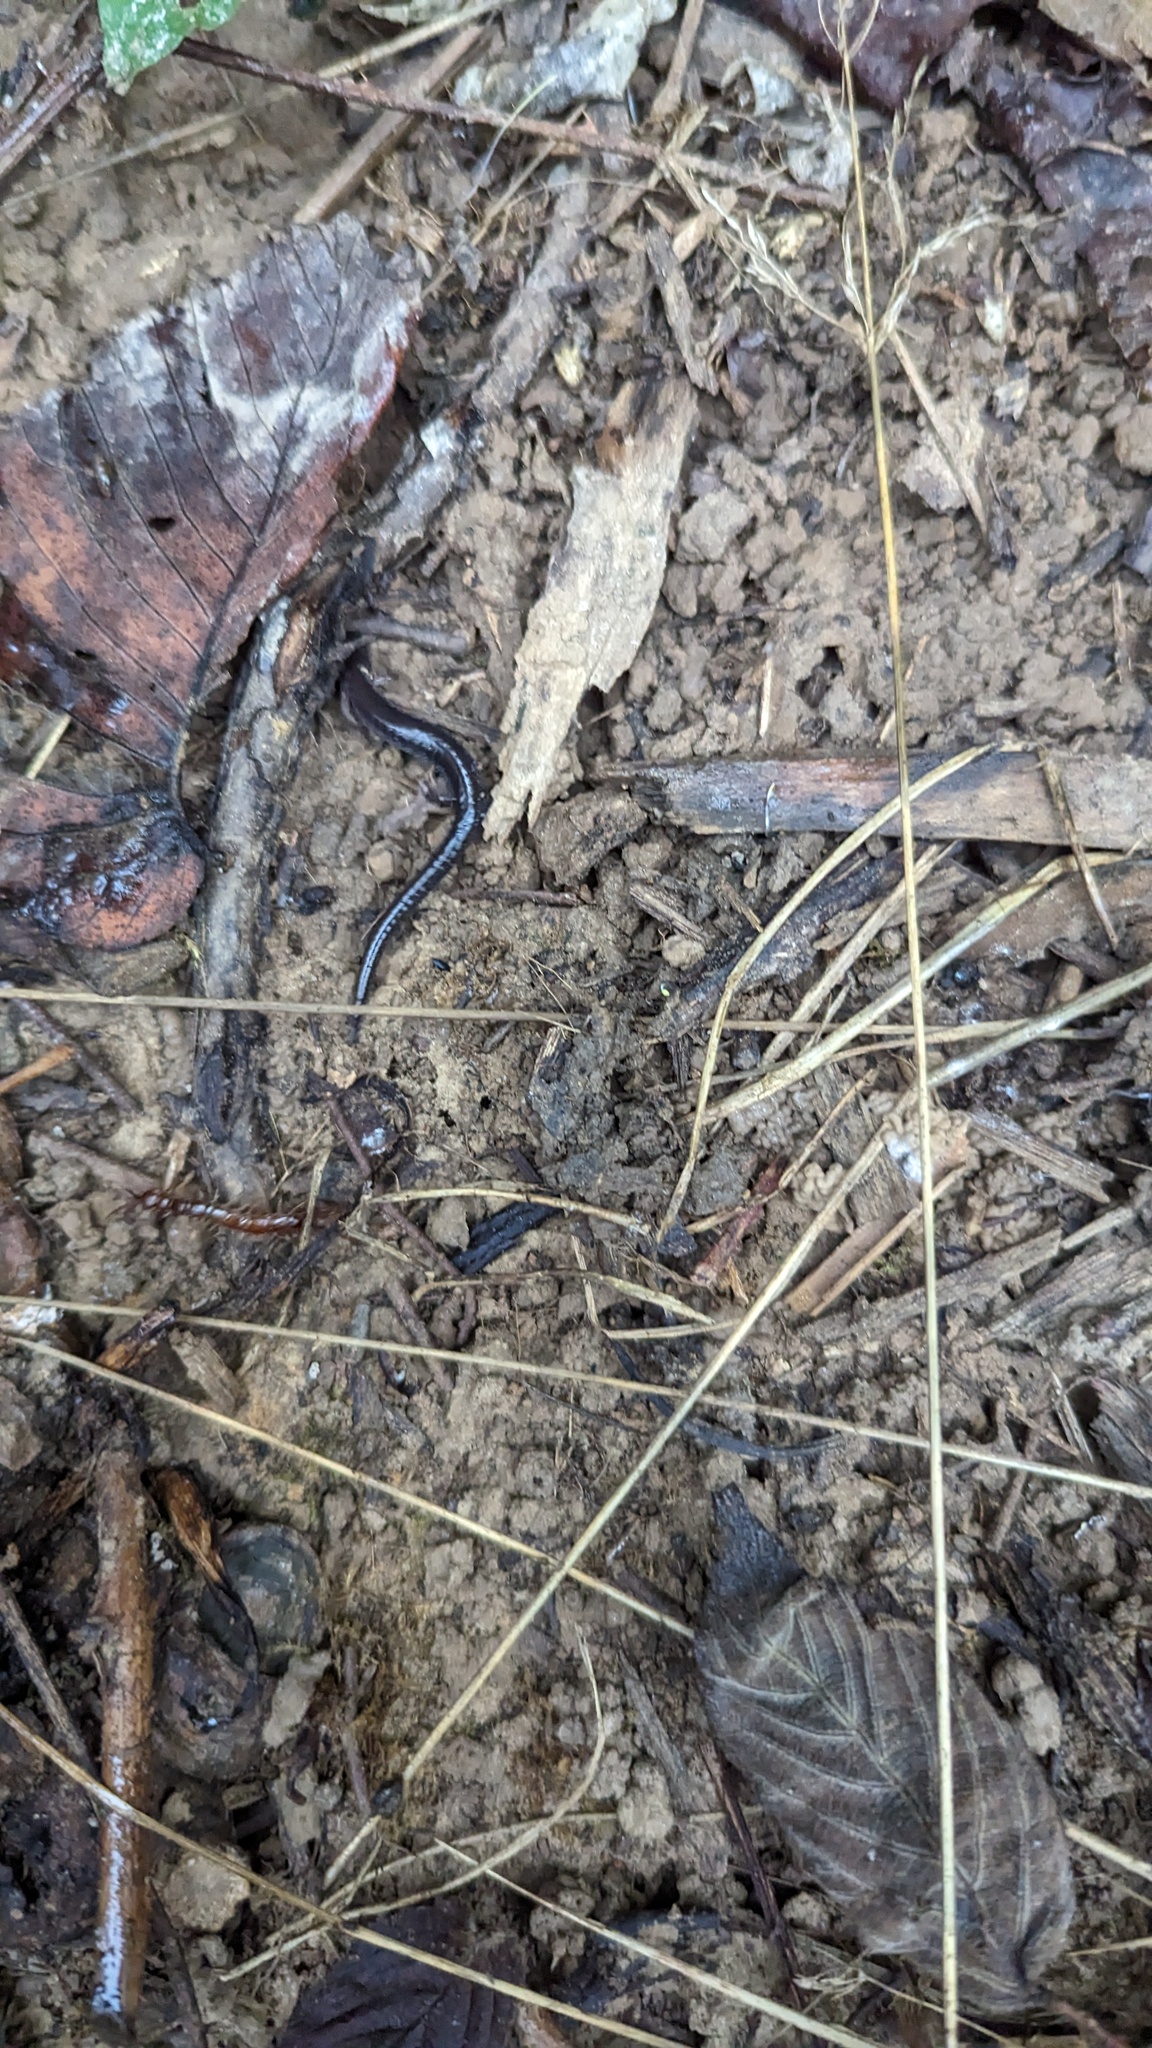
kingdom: Animalia
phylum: Chordata
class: Amphibia
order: Caudata
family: Plethodontidae
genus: Plethodon
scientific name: Plethodon cinereus
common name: Redback salamander
